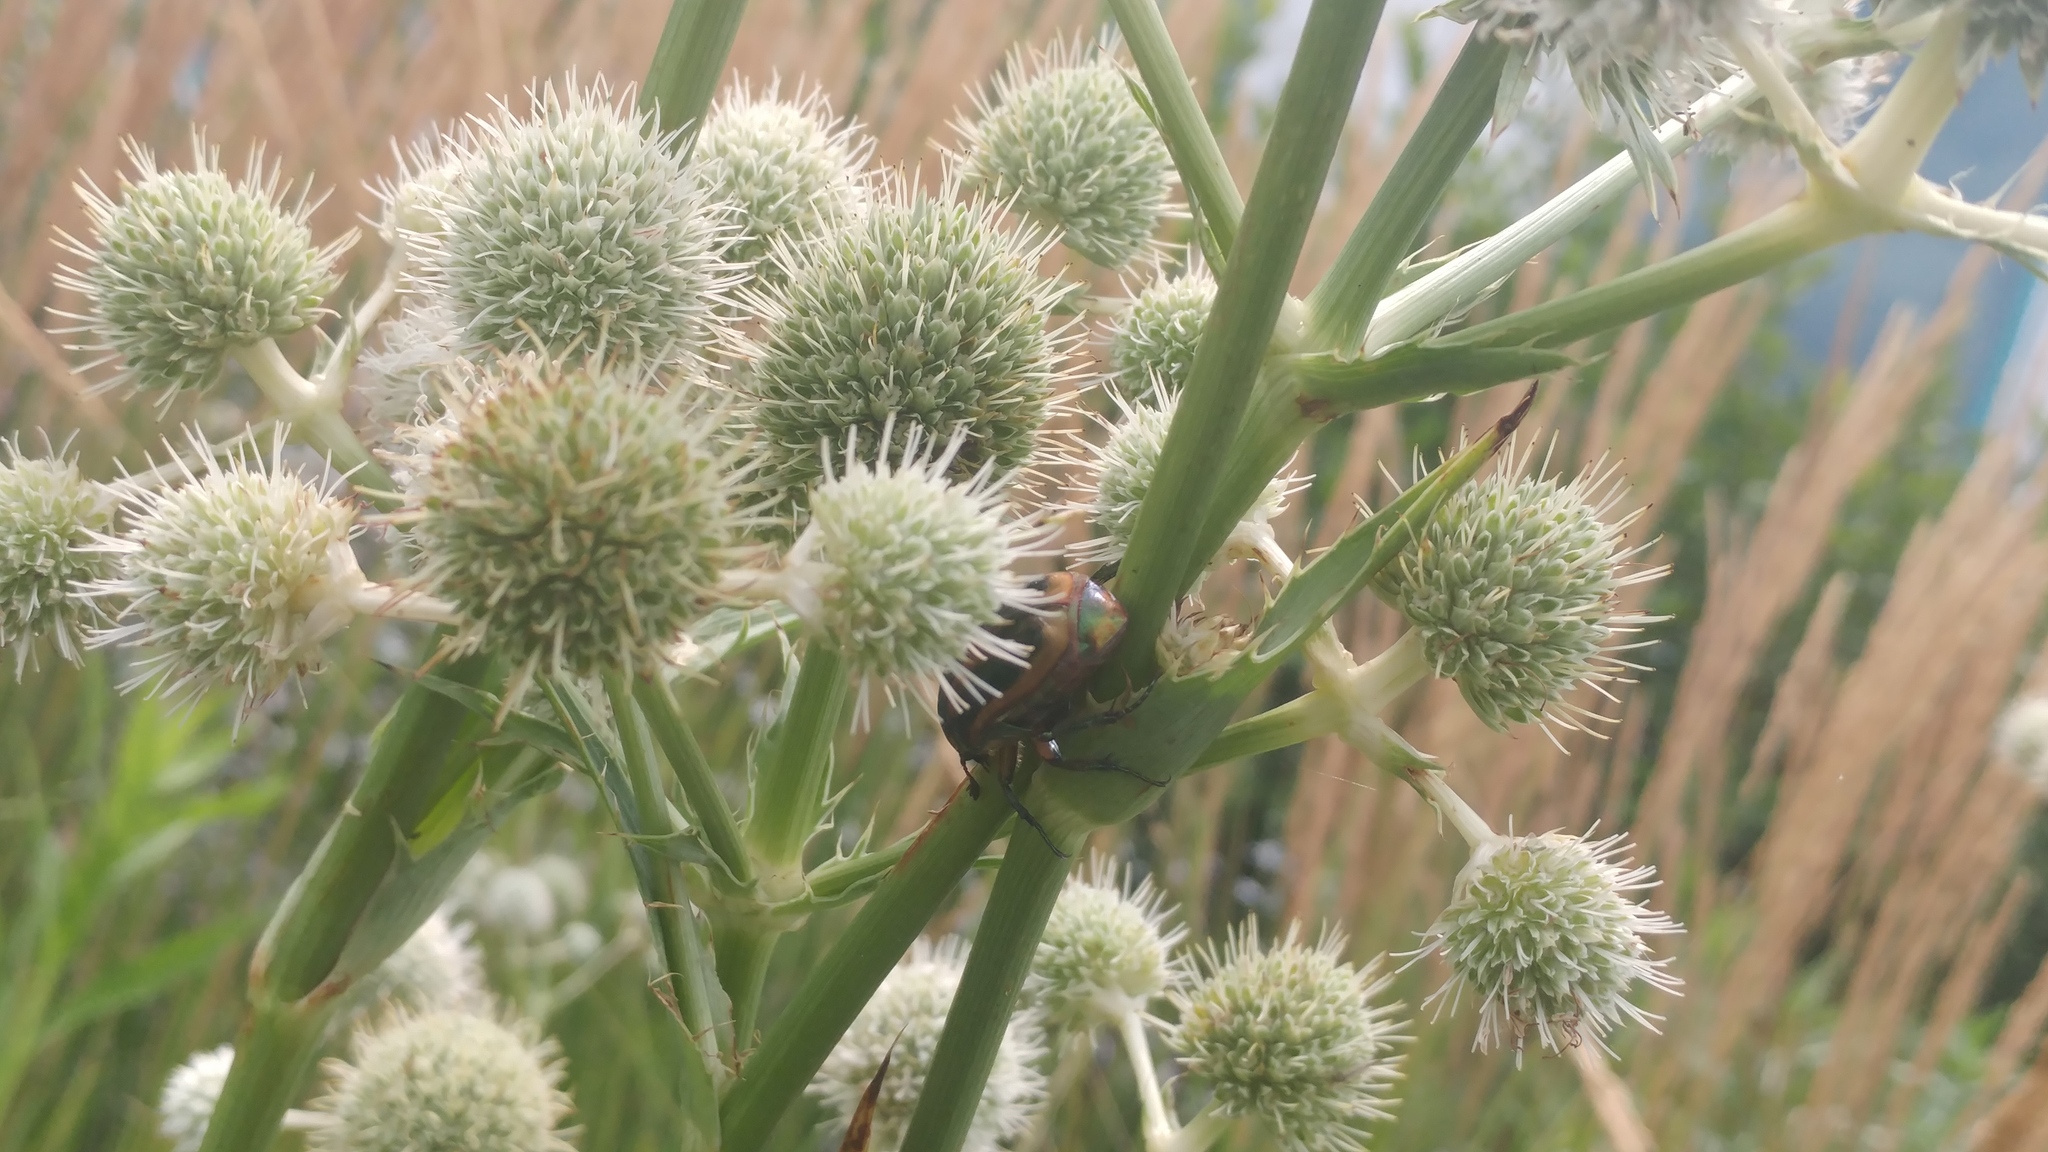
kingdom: Plantae
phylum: Tracheophyta
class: Magnoliopsida
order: Apiales
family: Apiaceae
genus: Eryngium
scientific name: Eryngium yuccifolium
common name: Button eryngo
